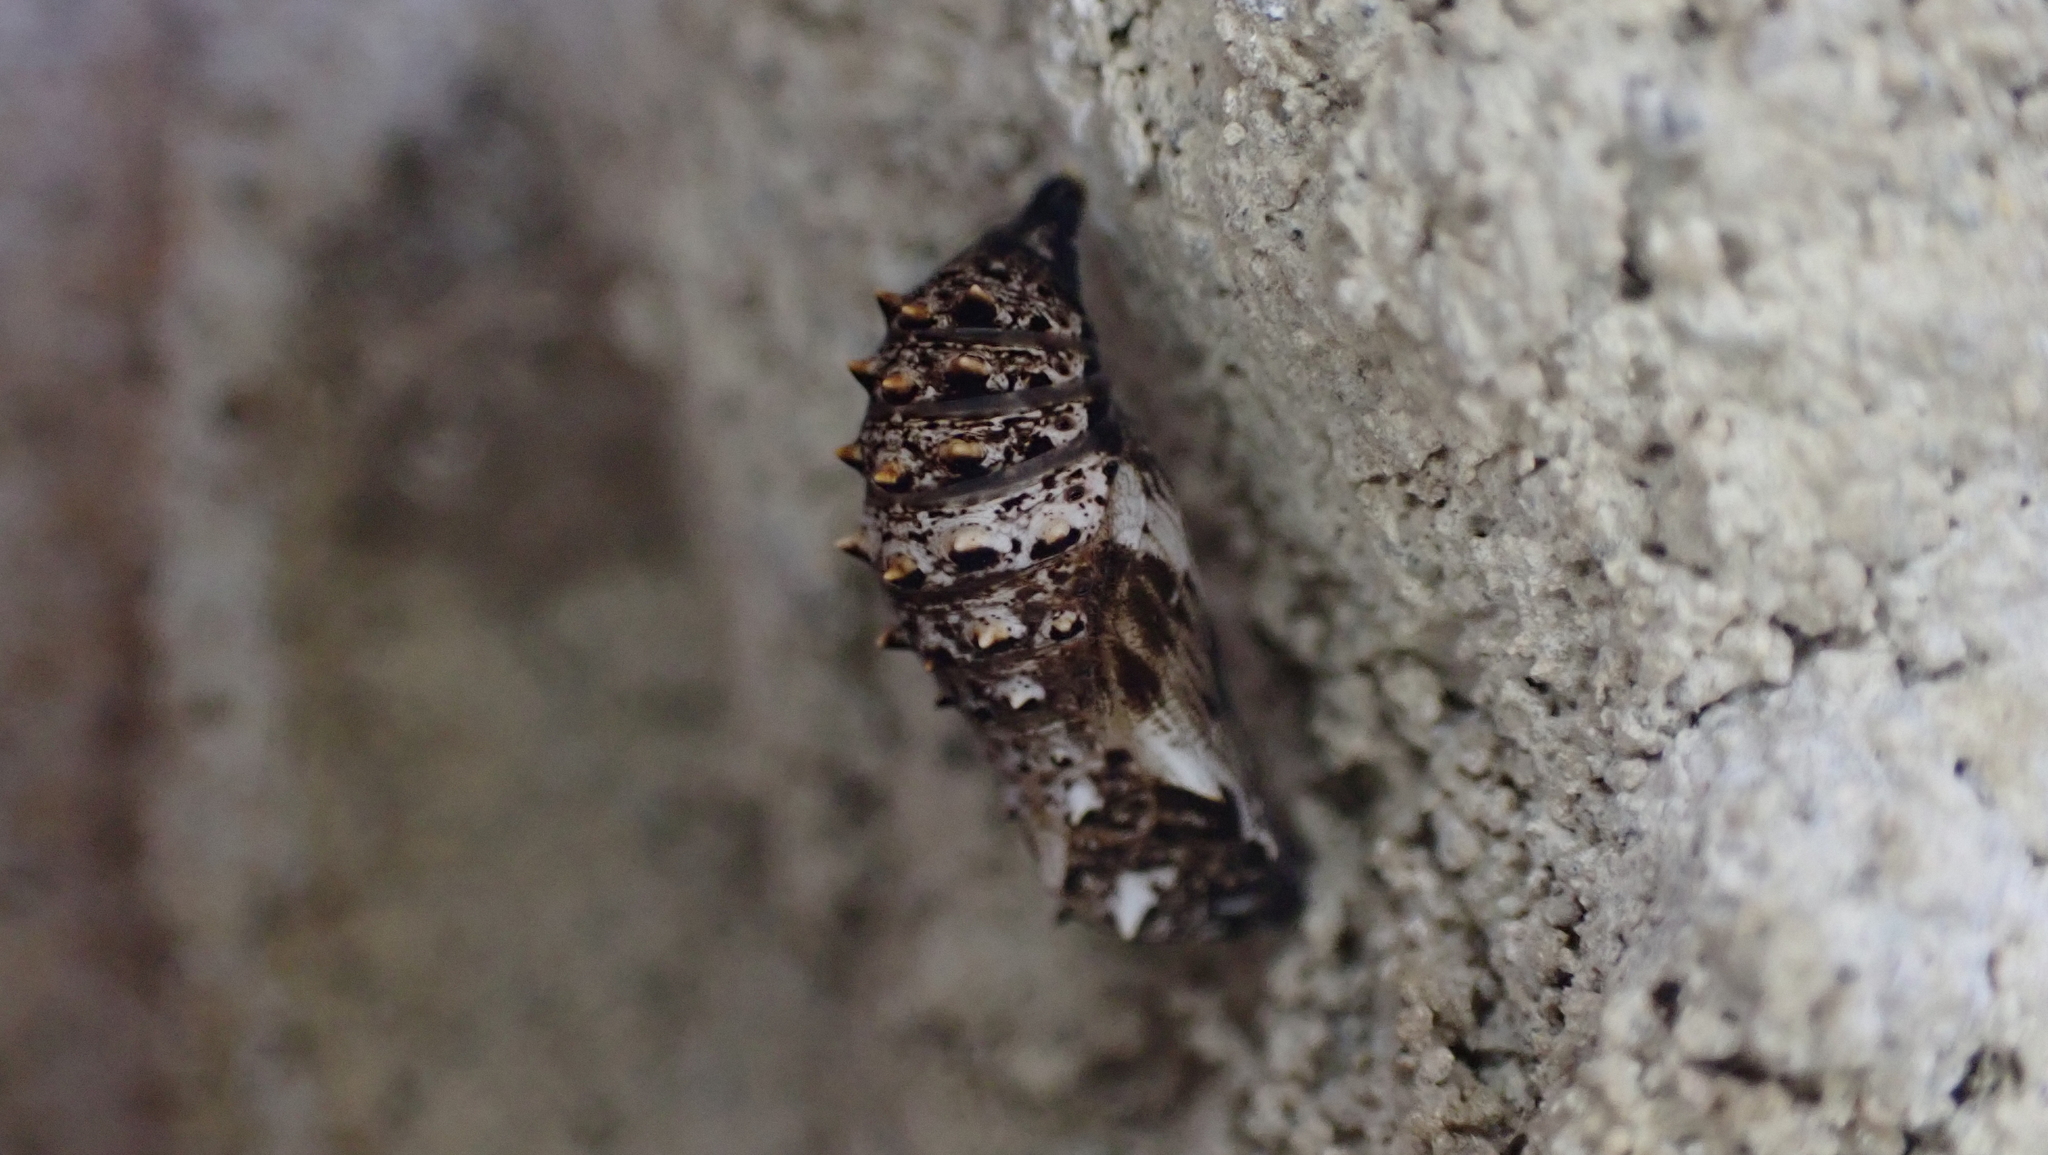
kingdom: Animalia
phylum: Arthropoda
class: Insecta
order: Lepidoptera
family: Nymphalidae
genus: Euptoieta
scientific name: Euptoieta claudia
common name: Variegated fritillary
